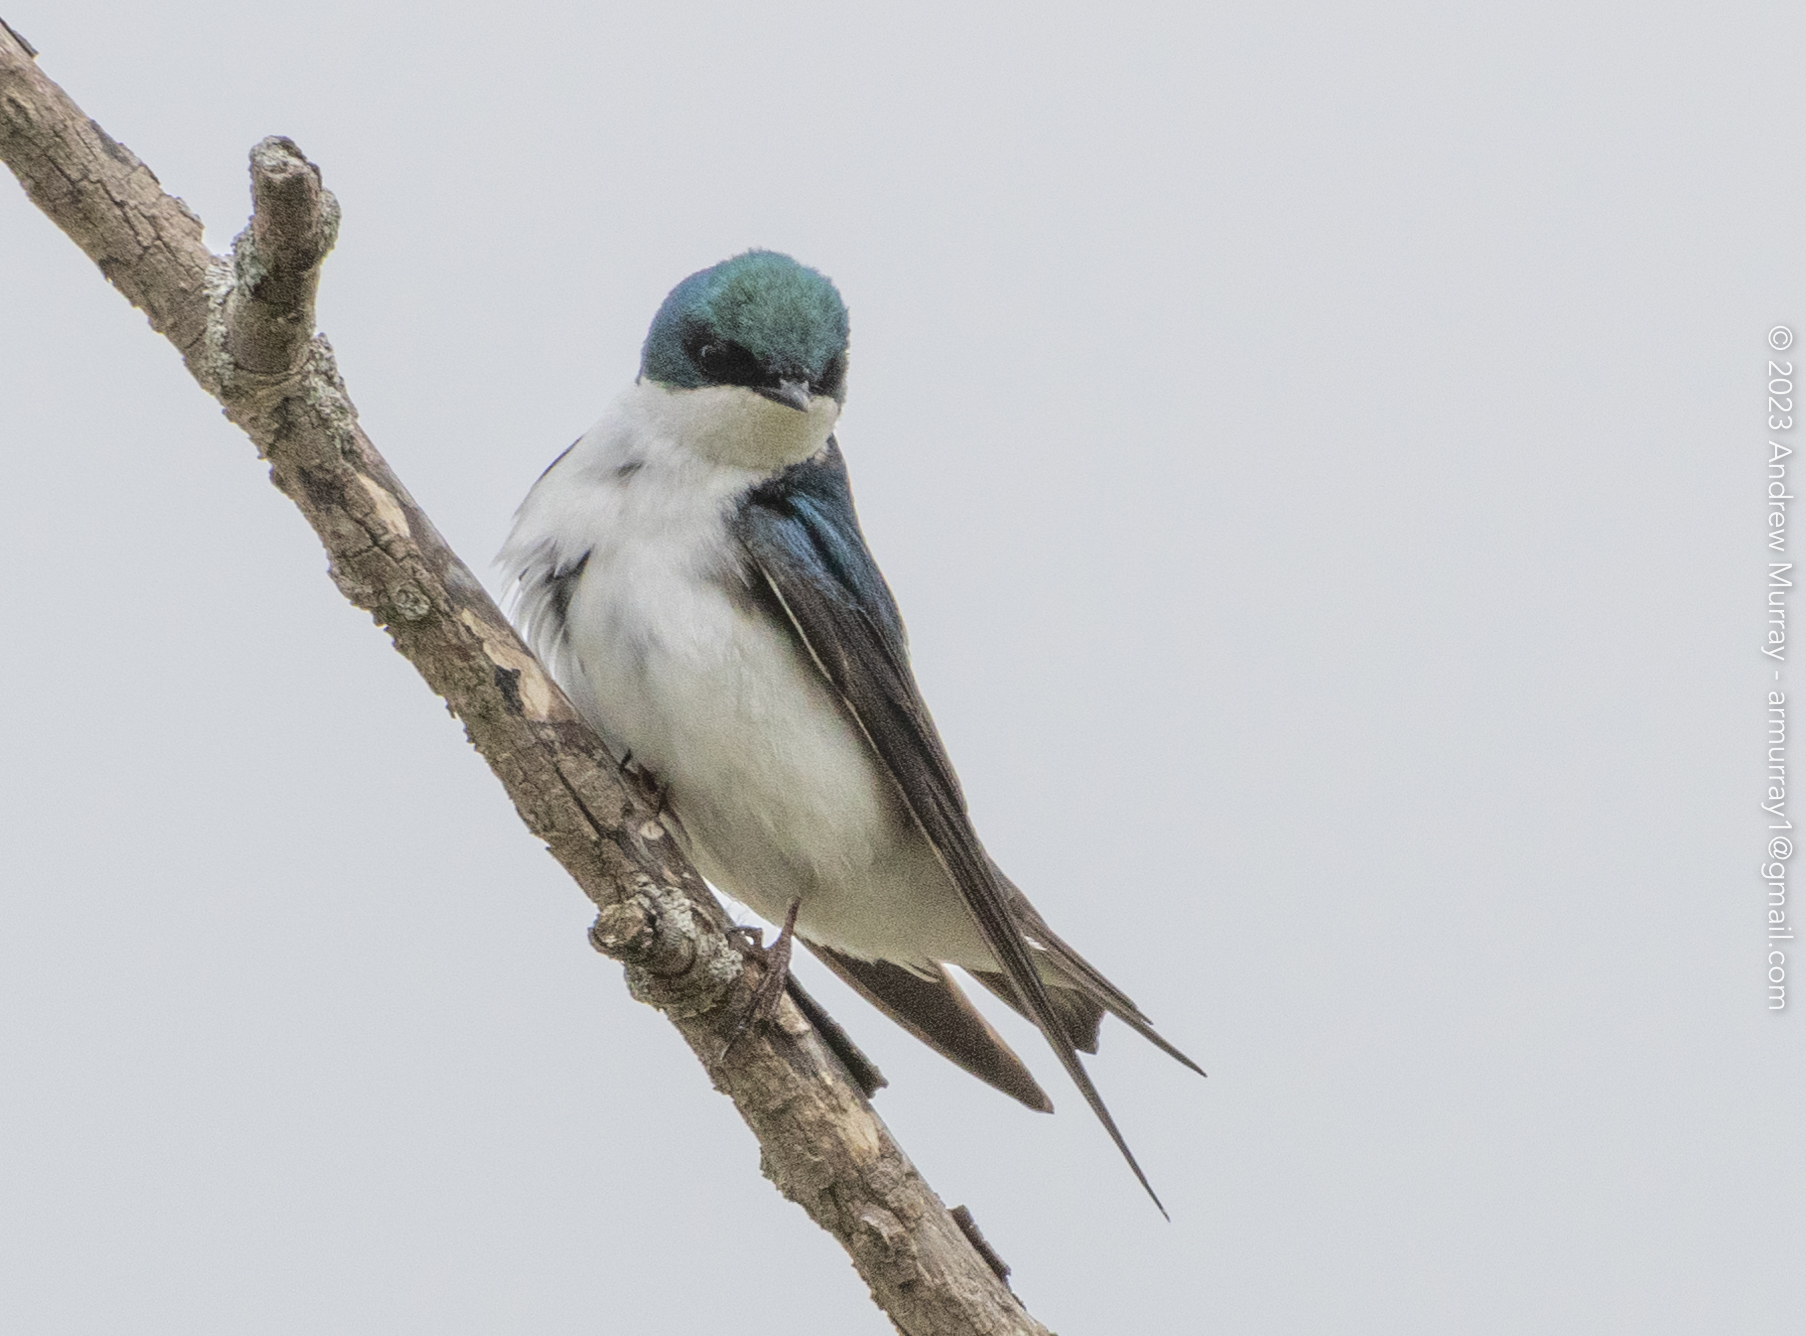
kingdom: Animalia
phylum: Chordata
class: Aves
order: Passeriformes
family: Hirundinidae
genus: Tachycineta
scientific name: Tachycineta bicolor
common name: Tree swallow
